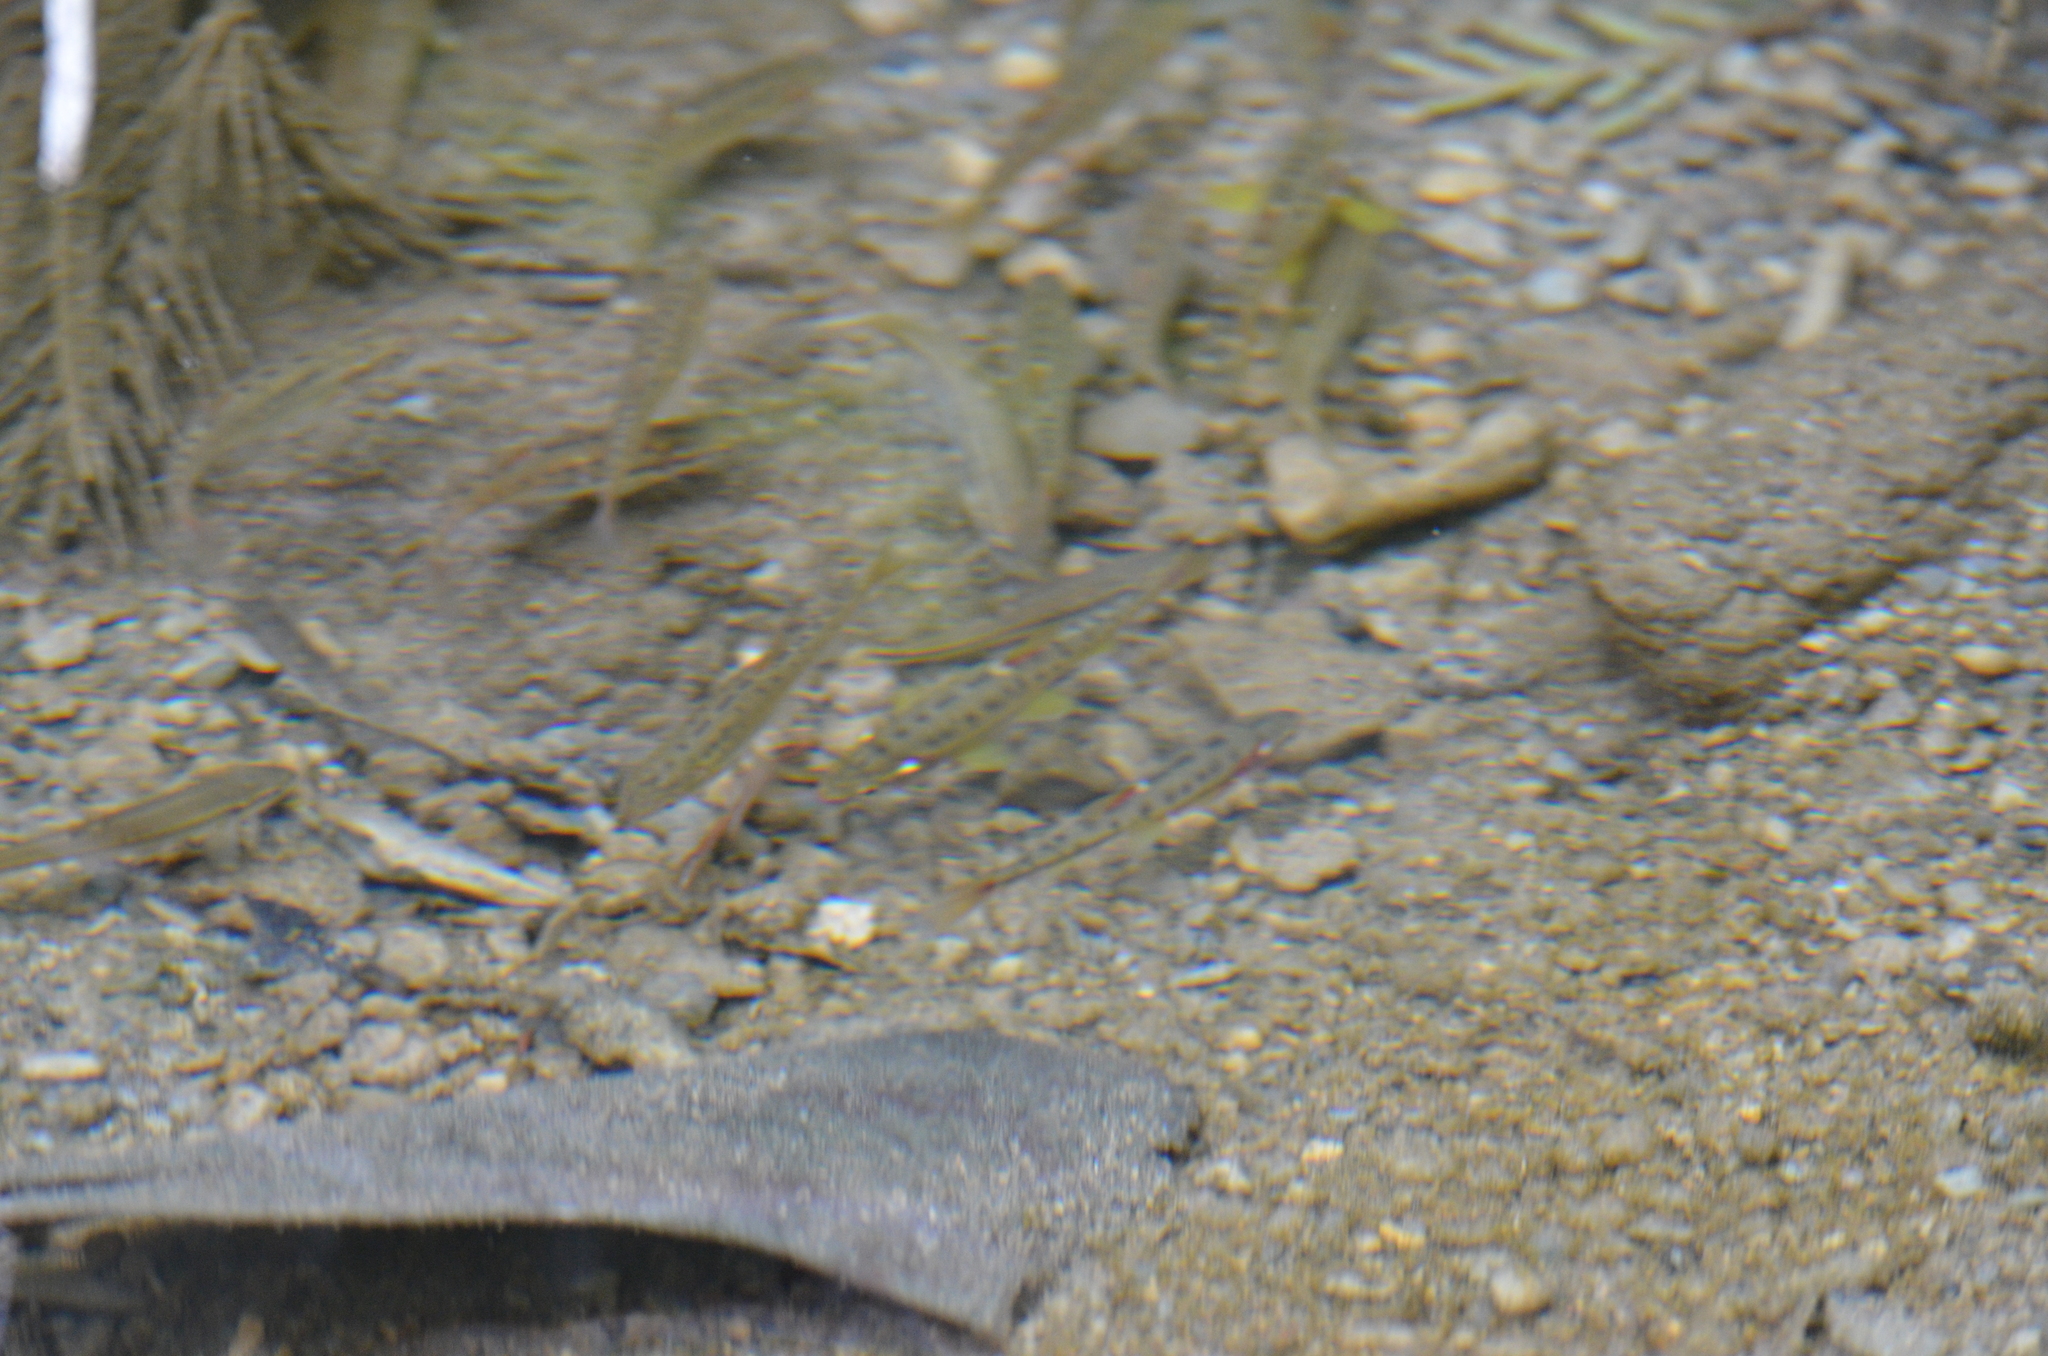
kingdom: Animalia
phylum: Chordata
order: Cypriniformes
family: Cyprinidae
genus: Chrosomus
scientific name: Chrosomus oreas
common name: Mountain redbelly dace
